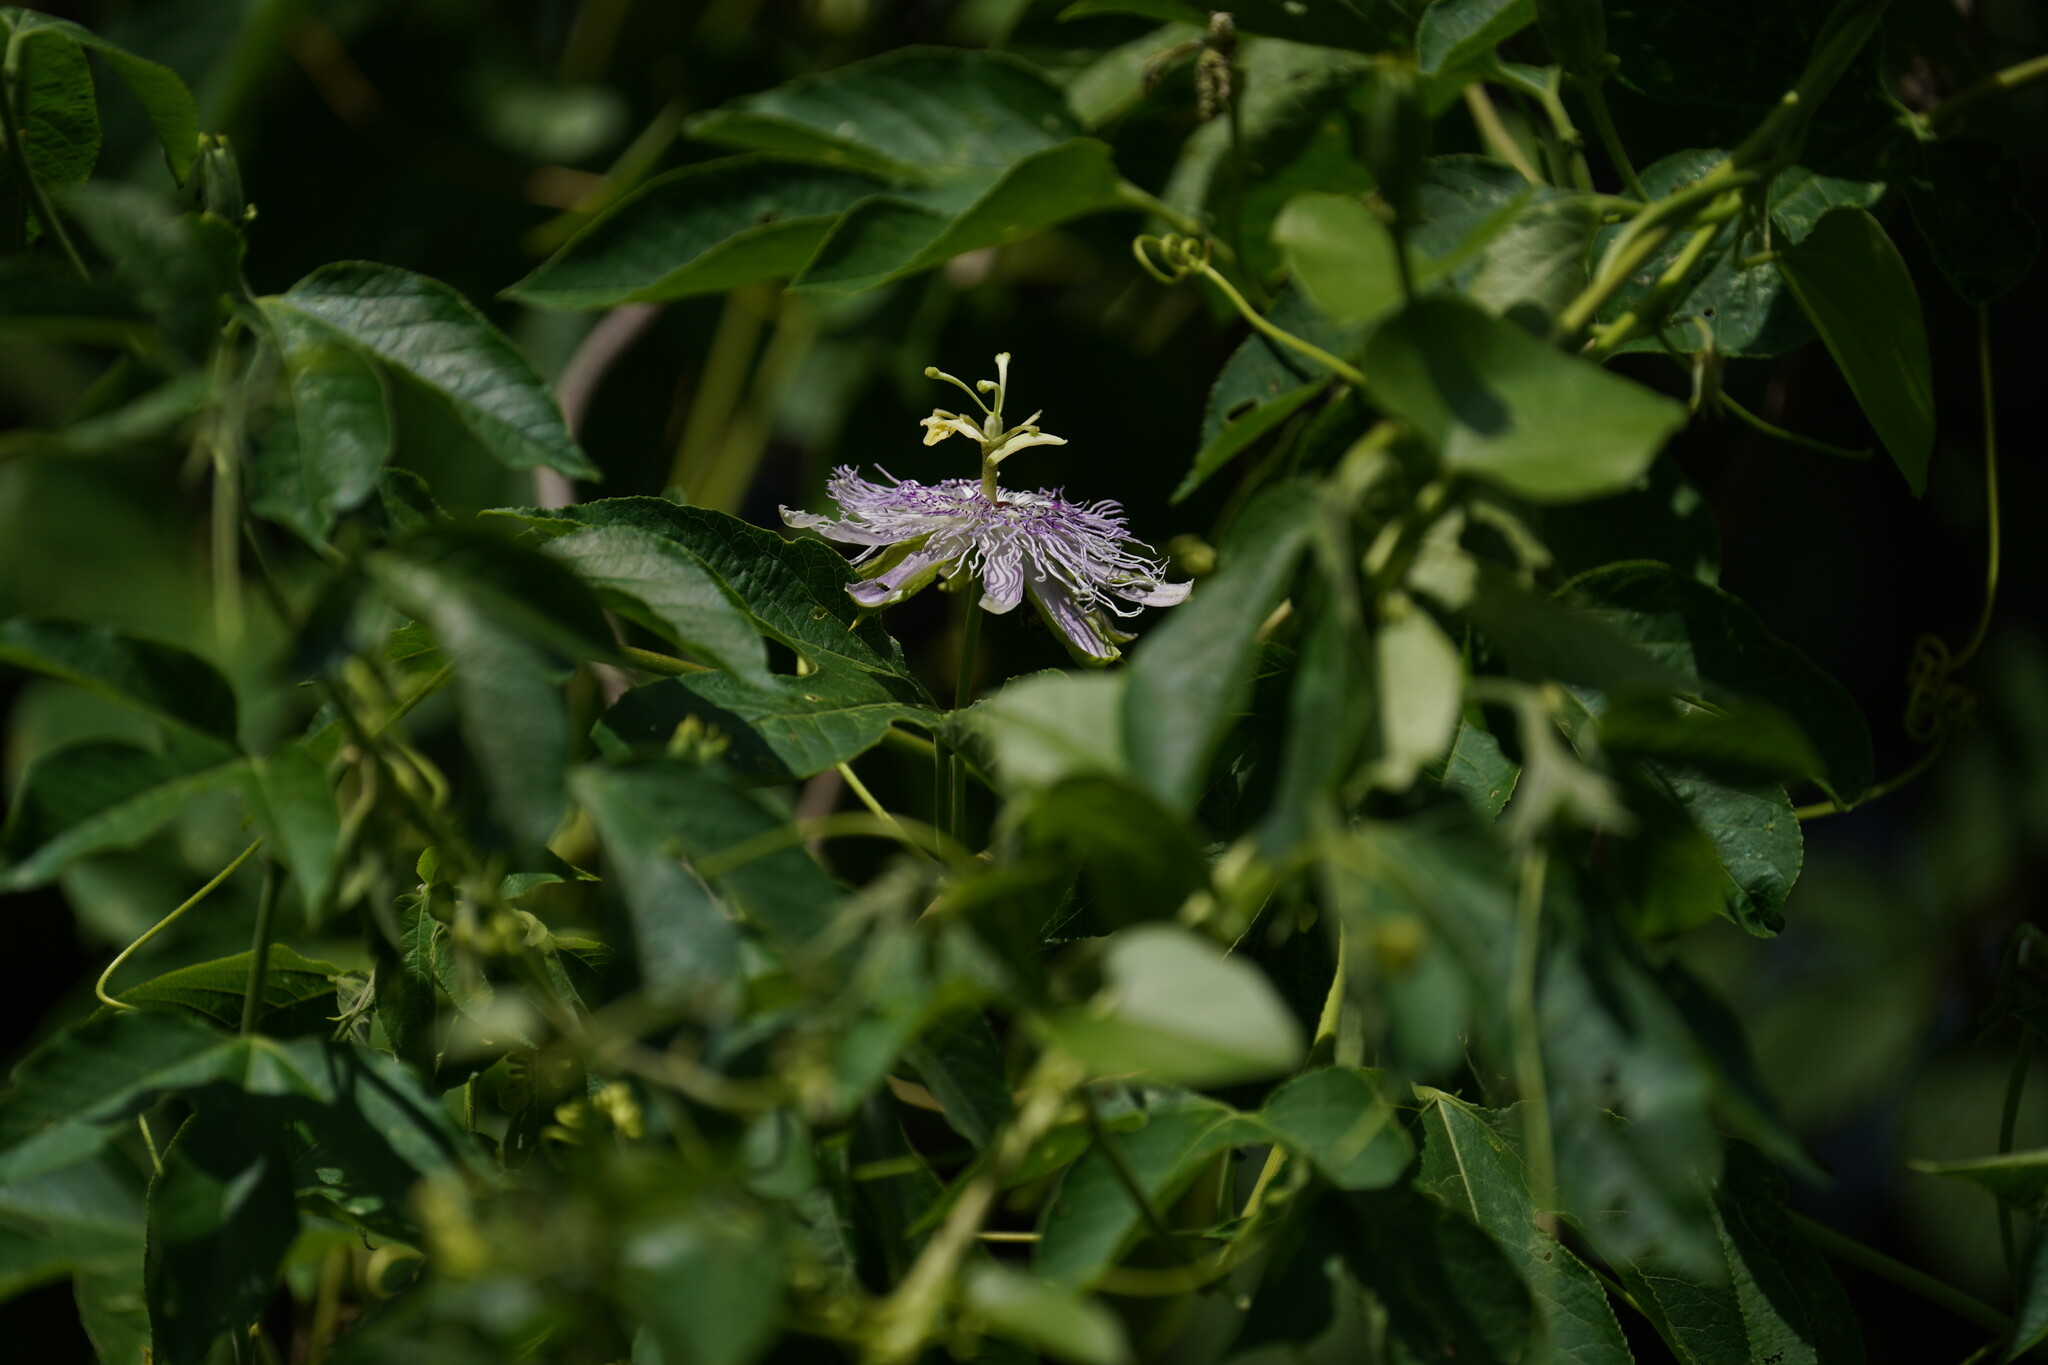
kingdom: Plantae
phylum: Tracheophyta
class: Magnoliopsida
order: Malpighiales
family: Passifloraceae
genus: Passiflora
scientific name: Passiflora incarnata
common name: Apricot-vine
